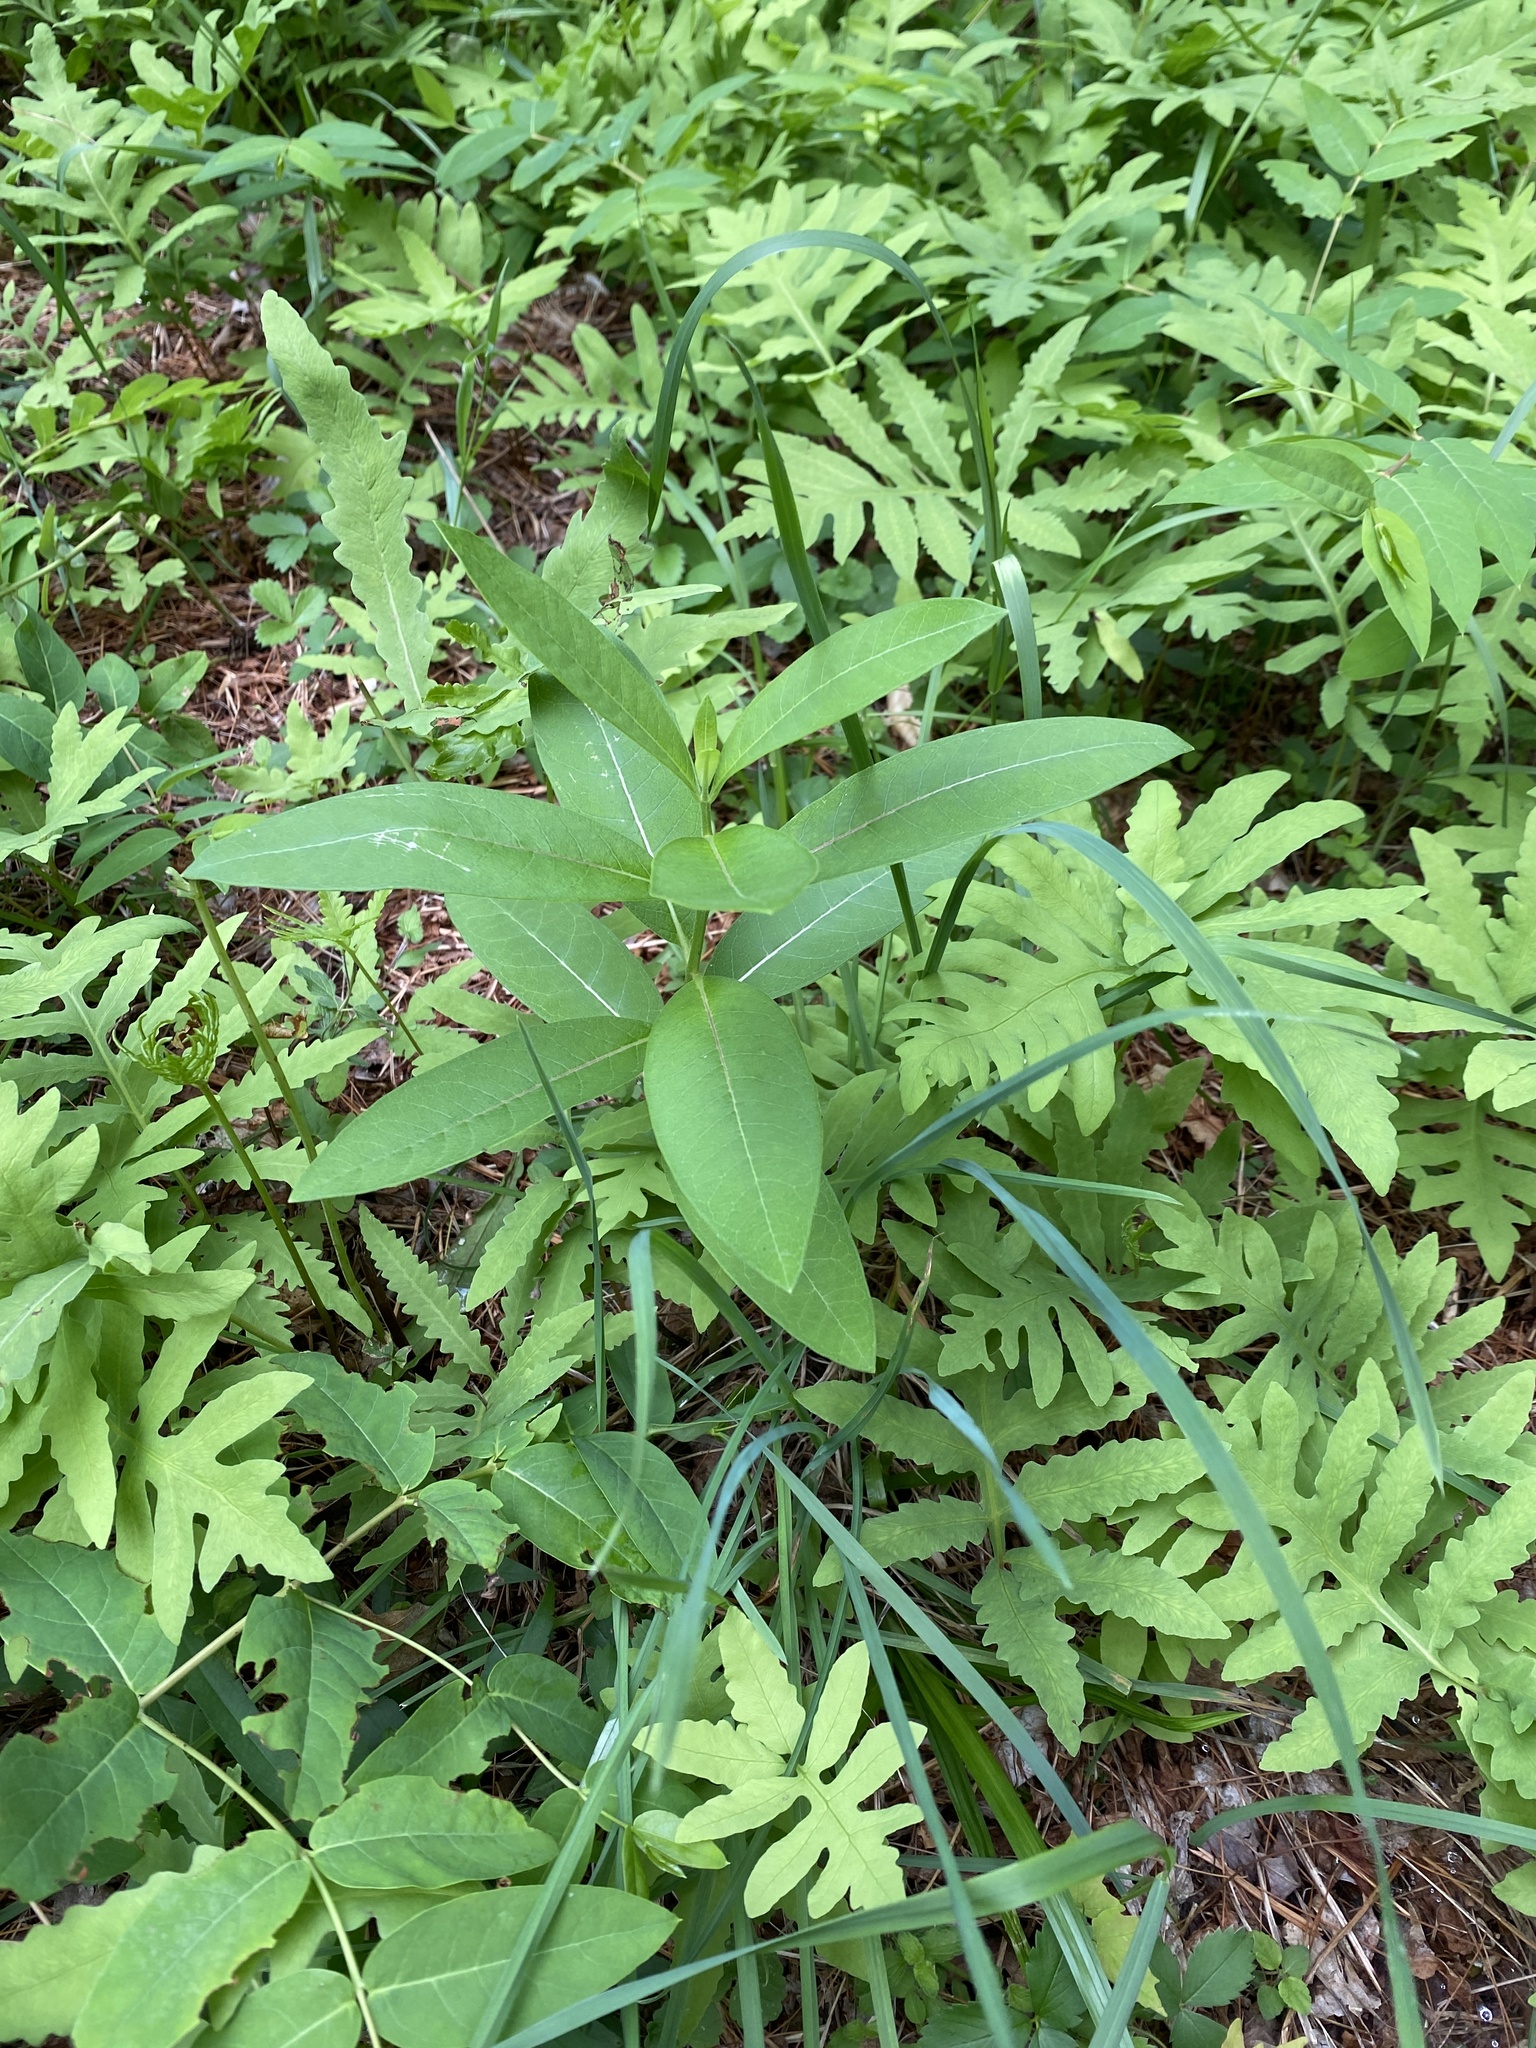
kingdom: Plantae
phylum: Tracheophyta
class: Magnoliopsida
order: Gentianales
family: Apocynaceae
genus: Asclepias
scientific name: Asclepias syriaca
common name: Common milkweed
